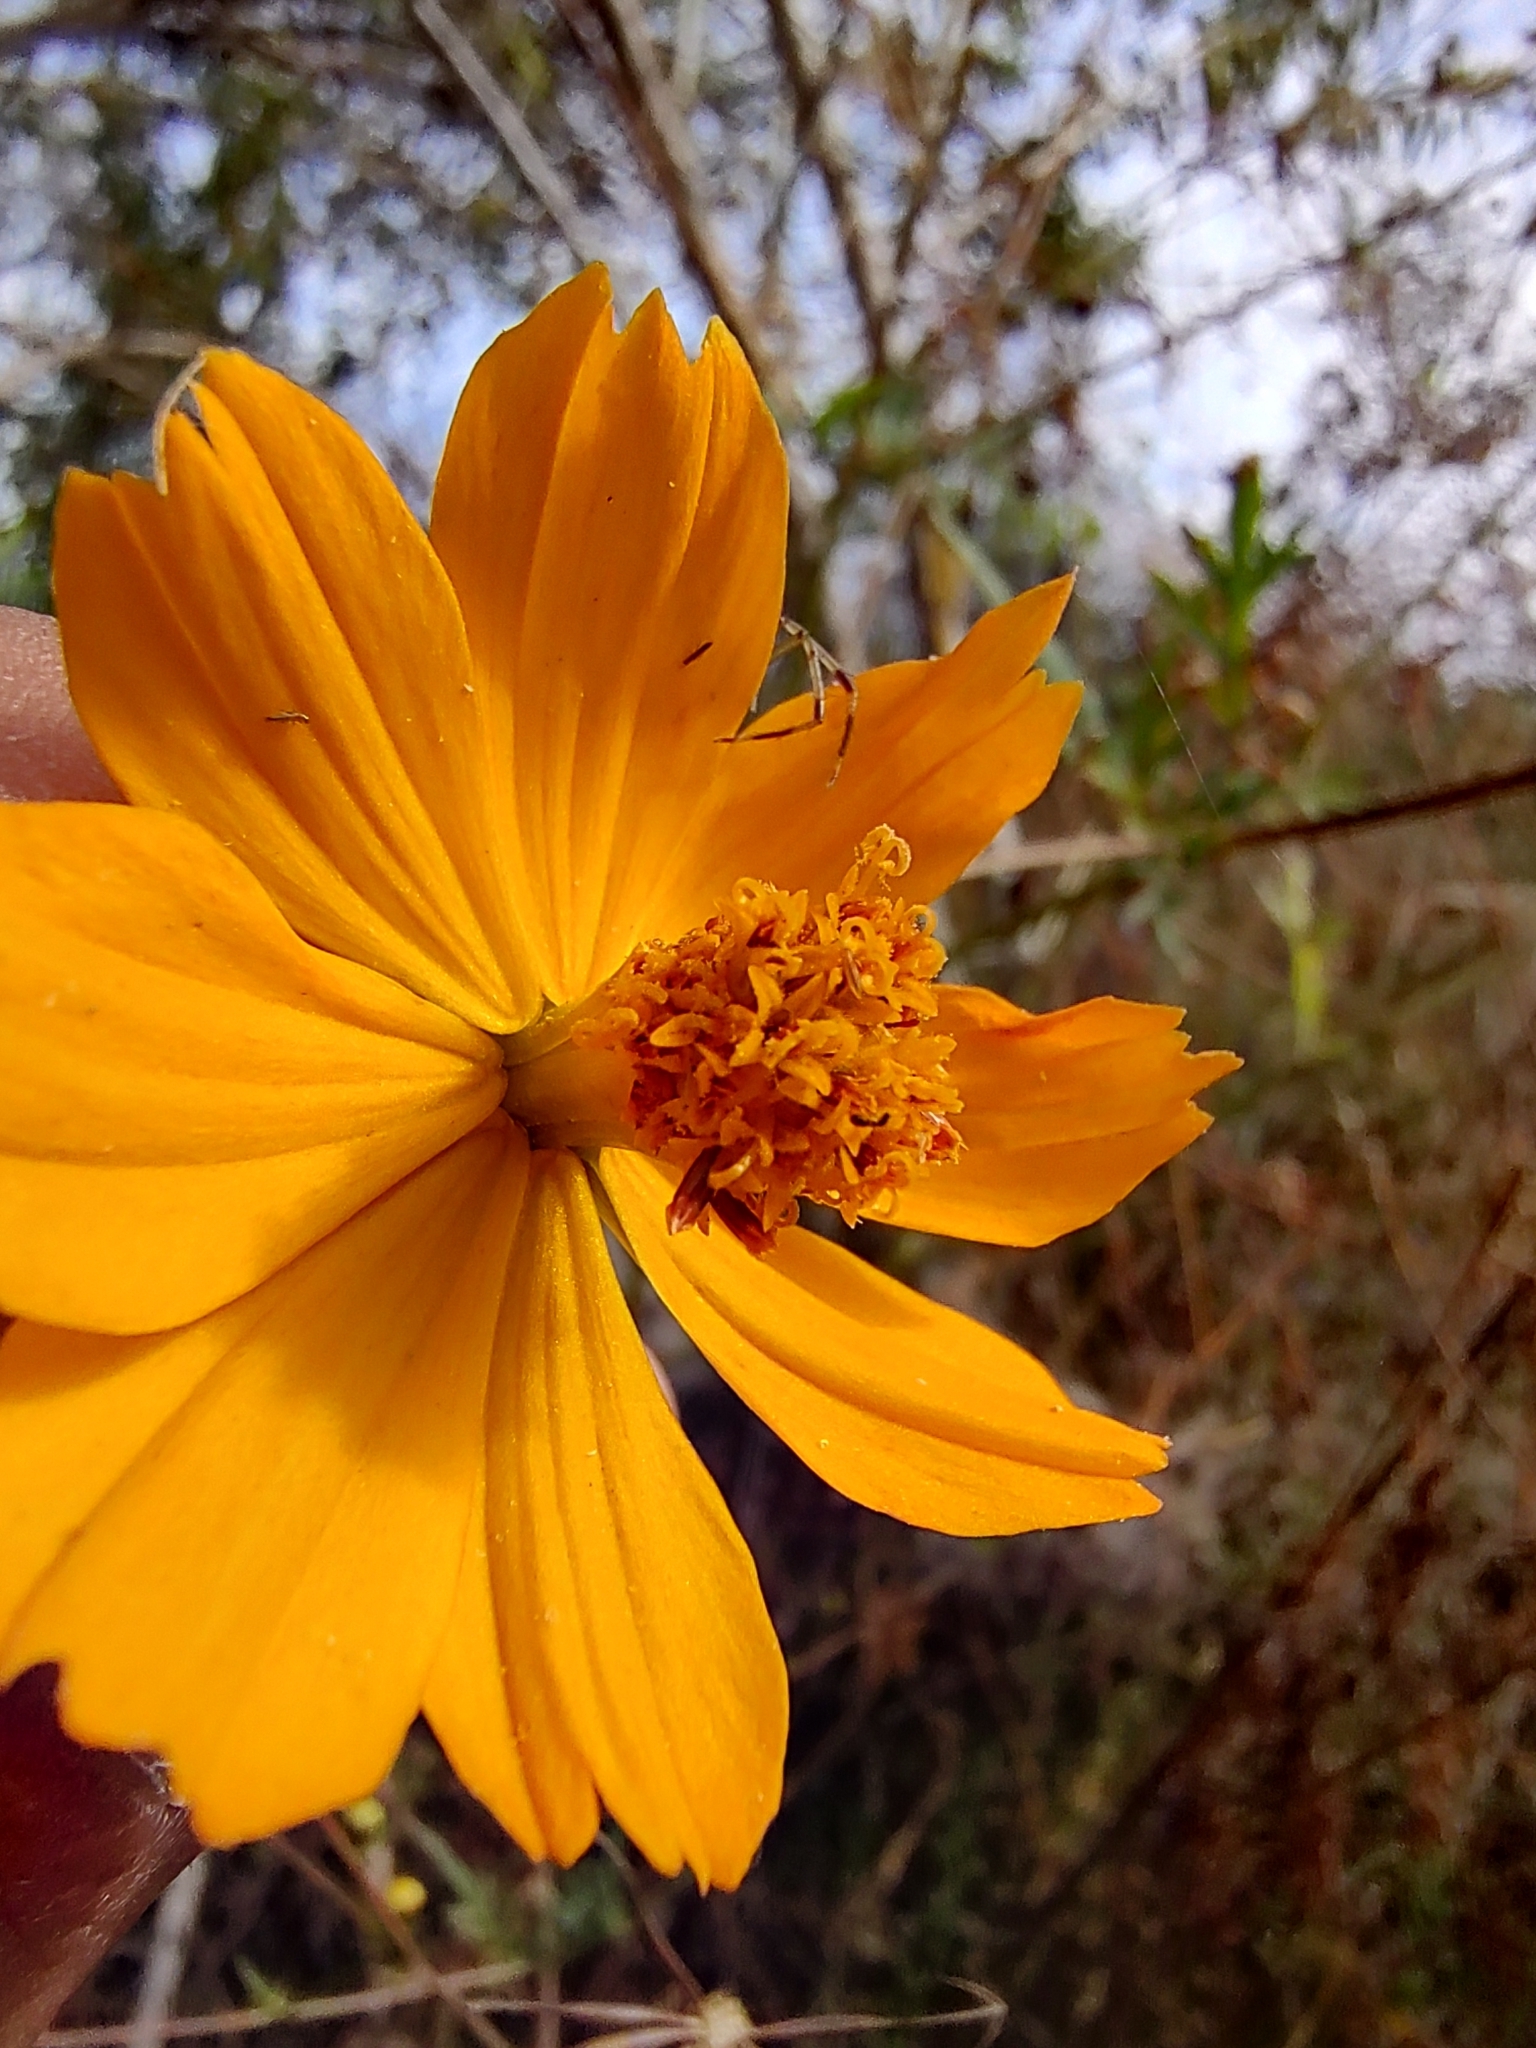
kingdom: Plantae
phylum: Tracheophyta
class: Magnoliopsida
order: Asterales
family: Asteraceae
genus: Cosmos
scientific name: Cosmos sulphureus
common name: Sulphur cosmos
